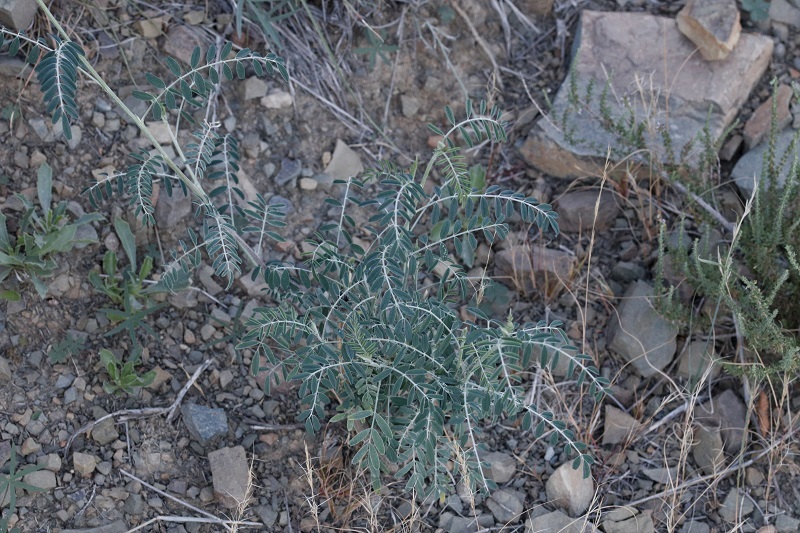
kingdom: Plantae
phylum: Tracheophyta
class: Magnoliopsida
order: Fabales
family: Fabaceae
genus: Lessertia
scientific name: Lessertia frutescens
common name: Balloon-pea
